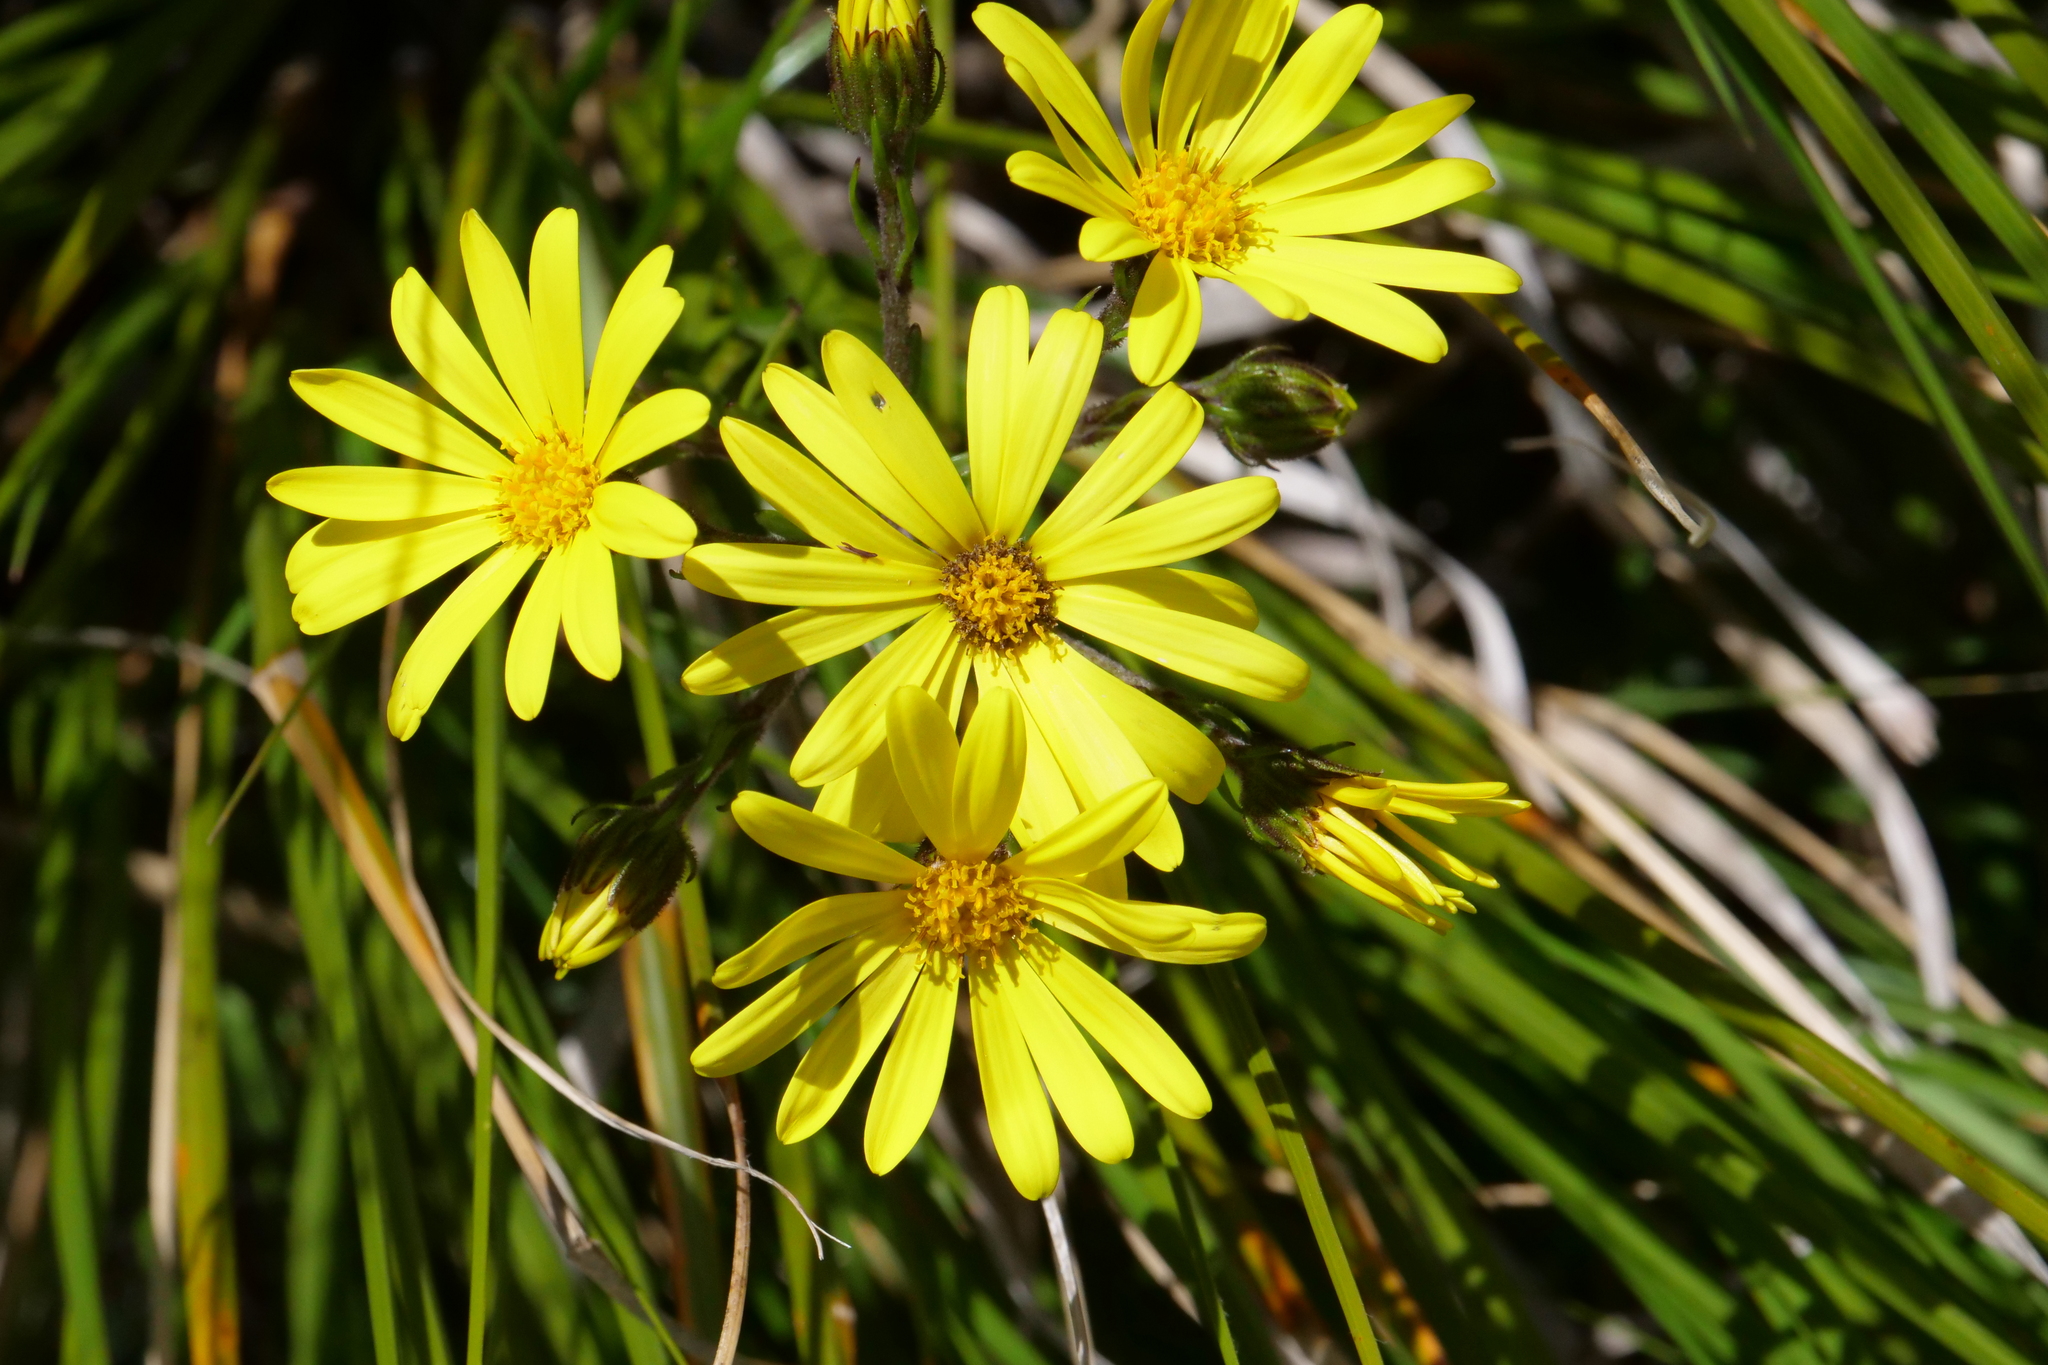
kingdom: Plantae
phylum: Tracheophyta
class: Magnoliopsida
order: Asterales
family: Asteraceae
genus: Dolichoglottis
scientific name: Dolichoglottis lyallii
